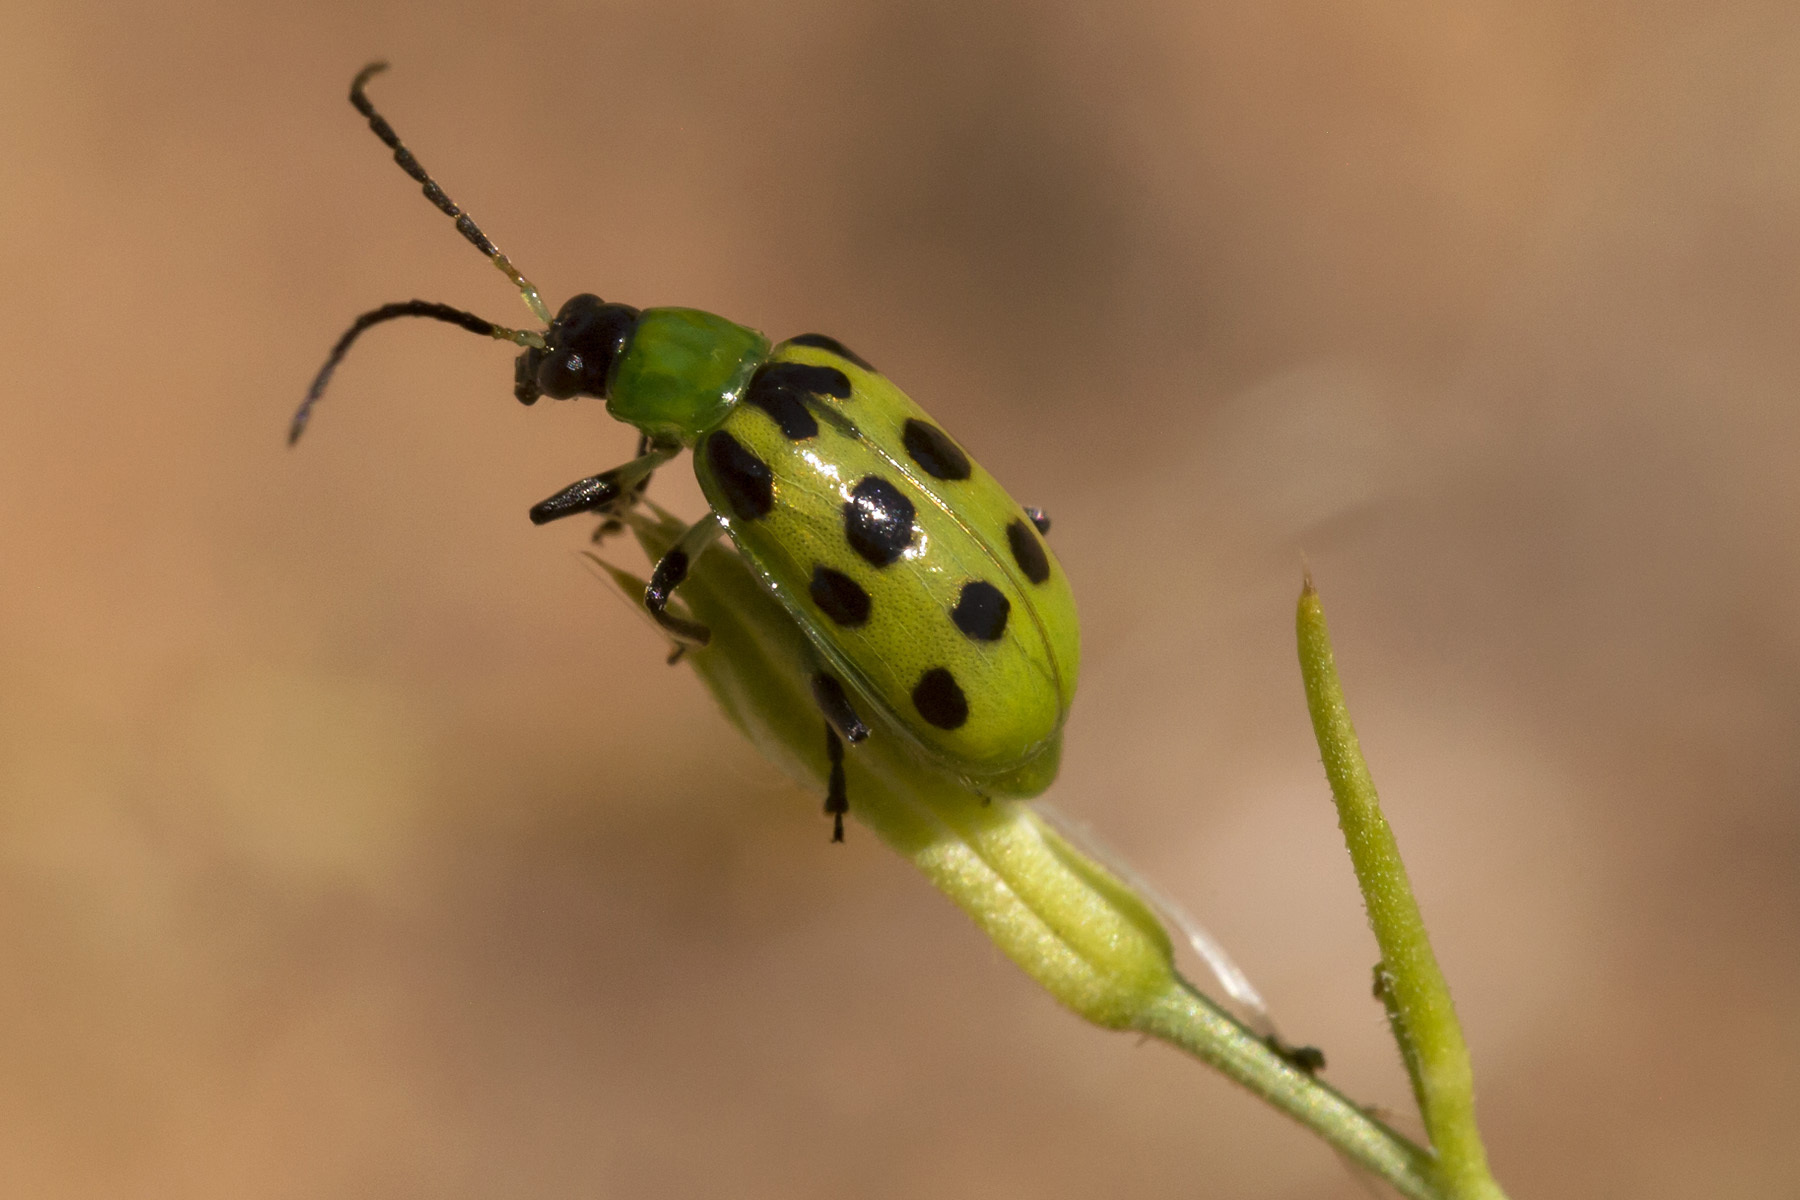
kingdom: Animalia
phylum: Arthropoda
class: Insecta
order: Coleoptera
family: Chrysomelidae
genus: Diabrotica
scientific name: Diabrotica undecimpunctata
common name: Spotted cucumber beetle
